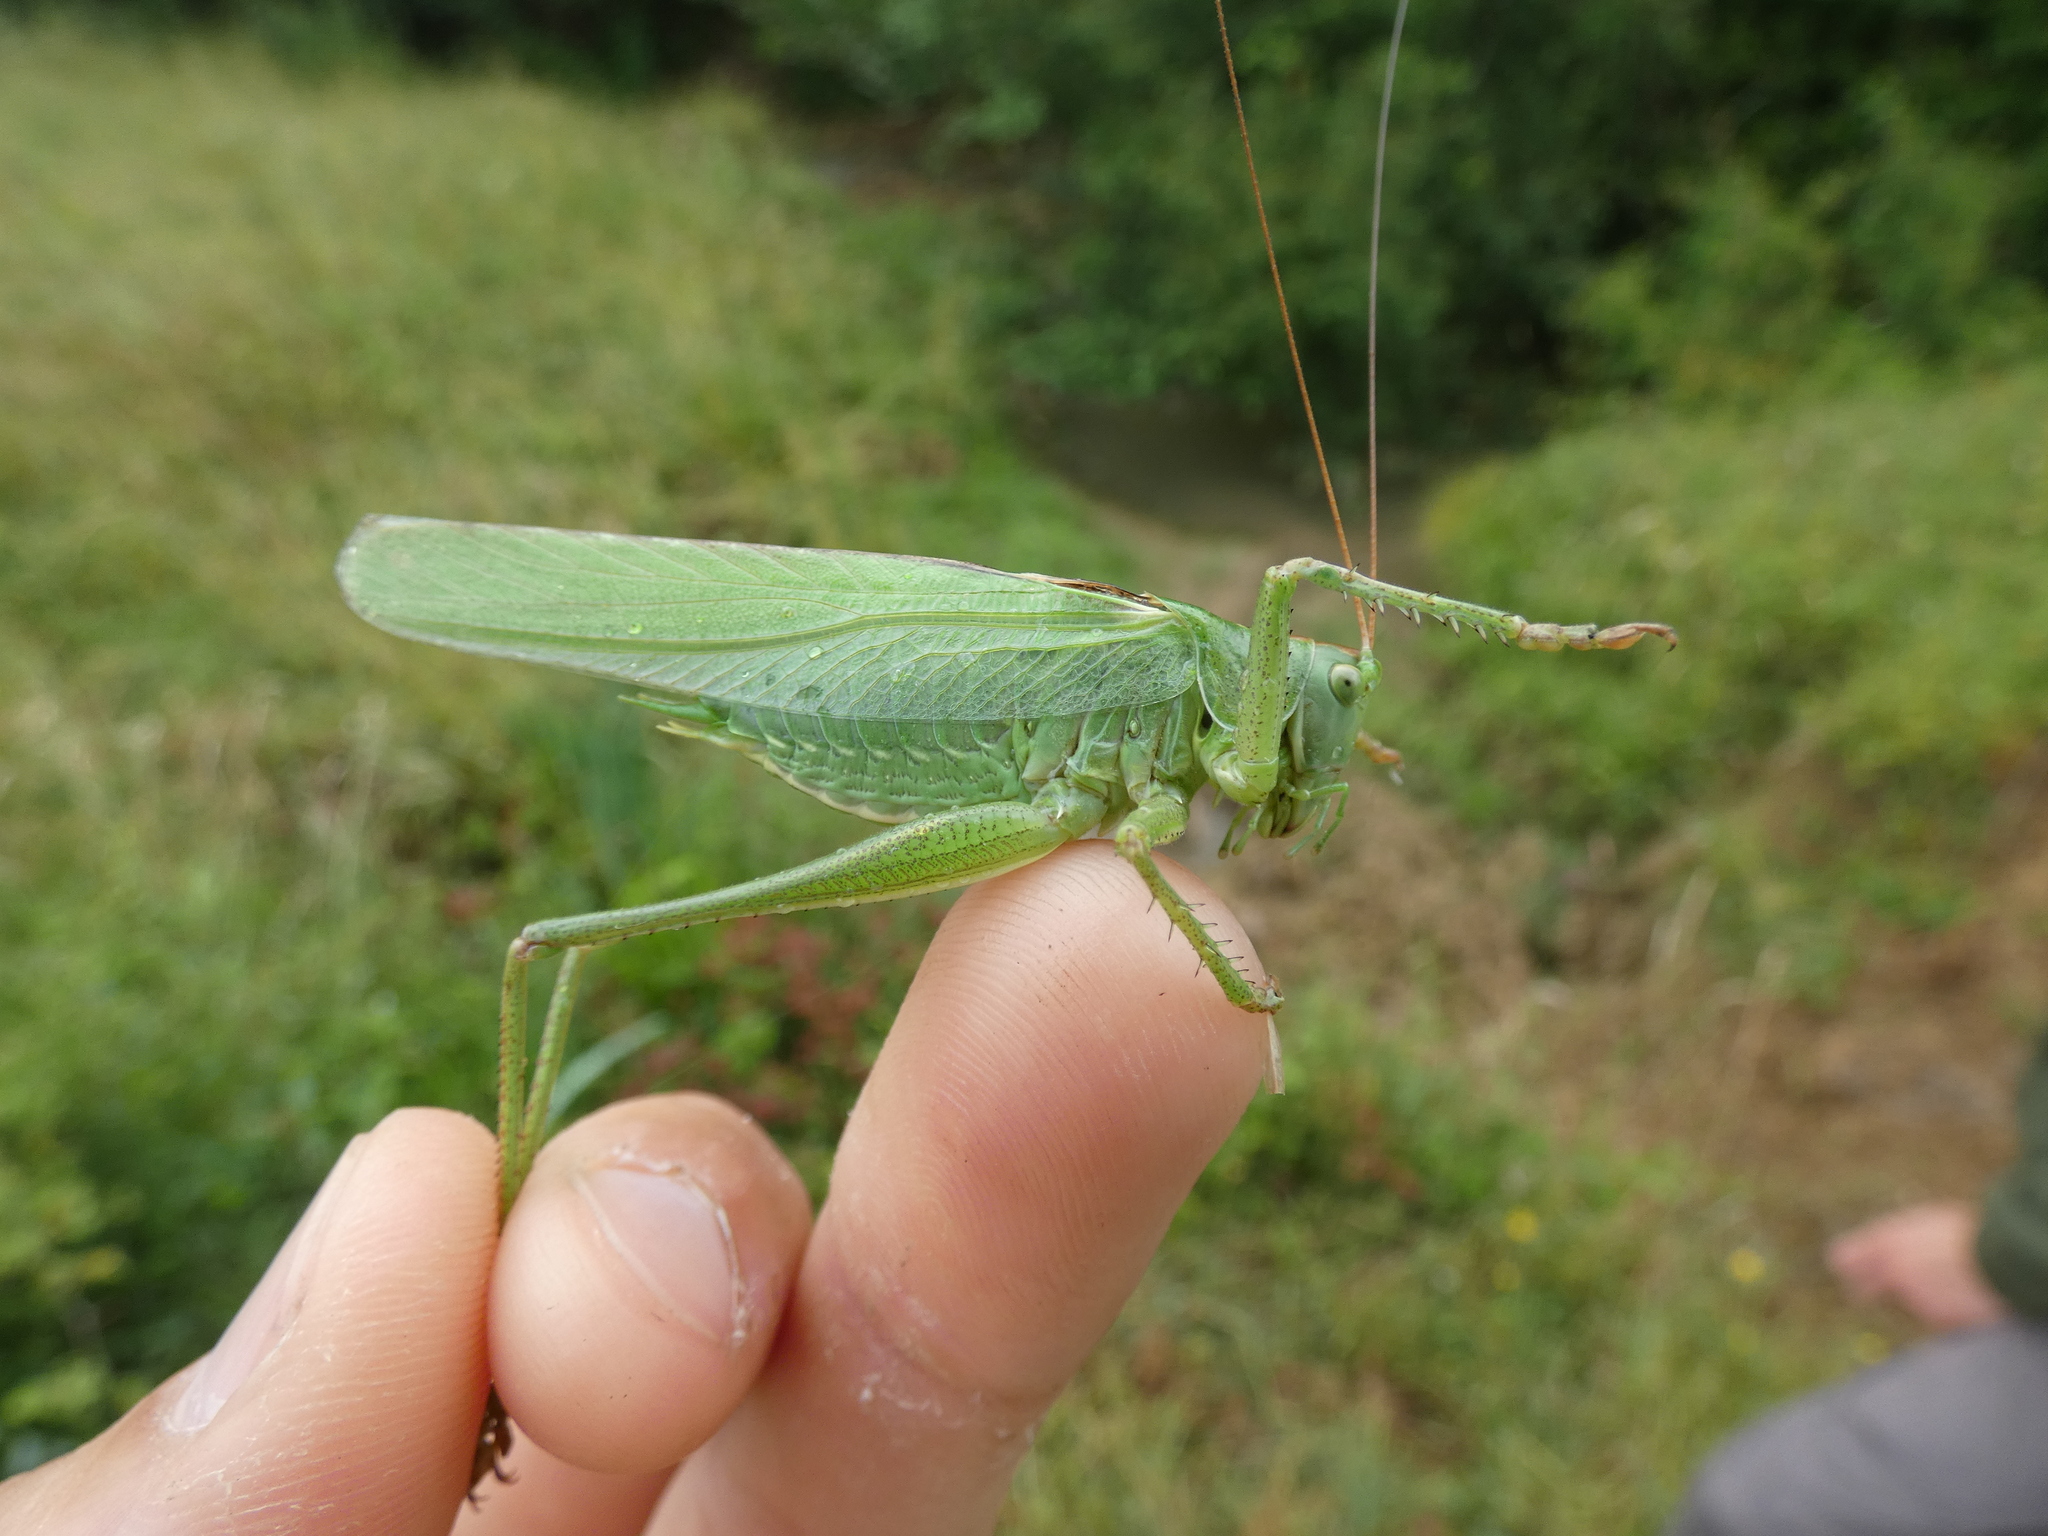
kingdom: Animalia
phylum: Arthropoda
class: Insecta
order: Orthoptera
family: Tettigoniidae
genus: Tettigonia
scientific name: Tettigonia viridissima
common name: Great green bush-cricket
